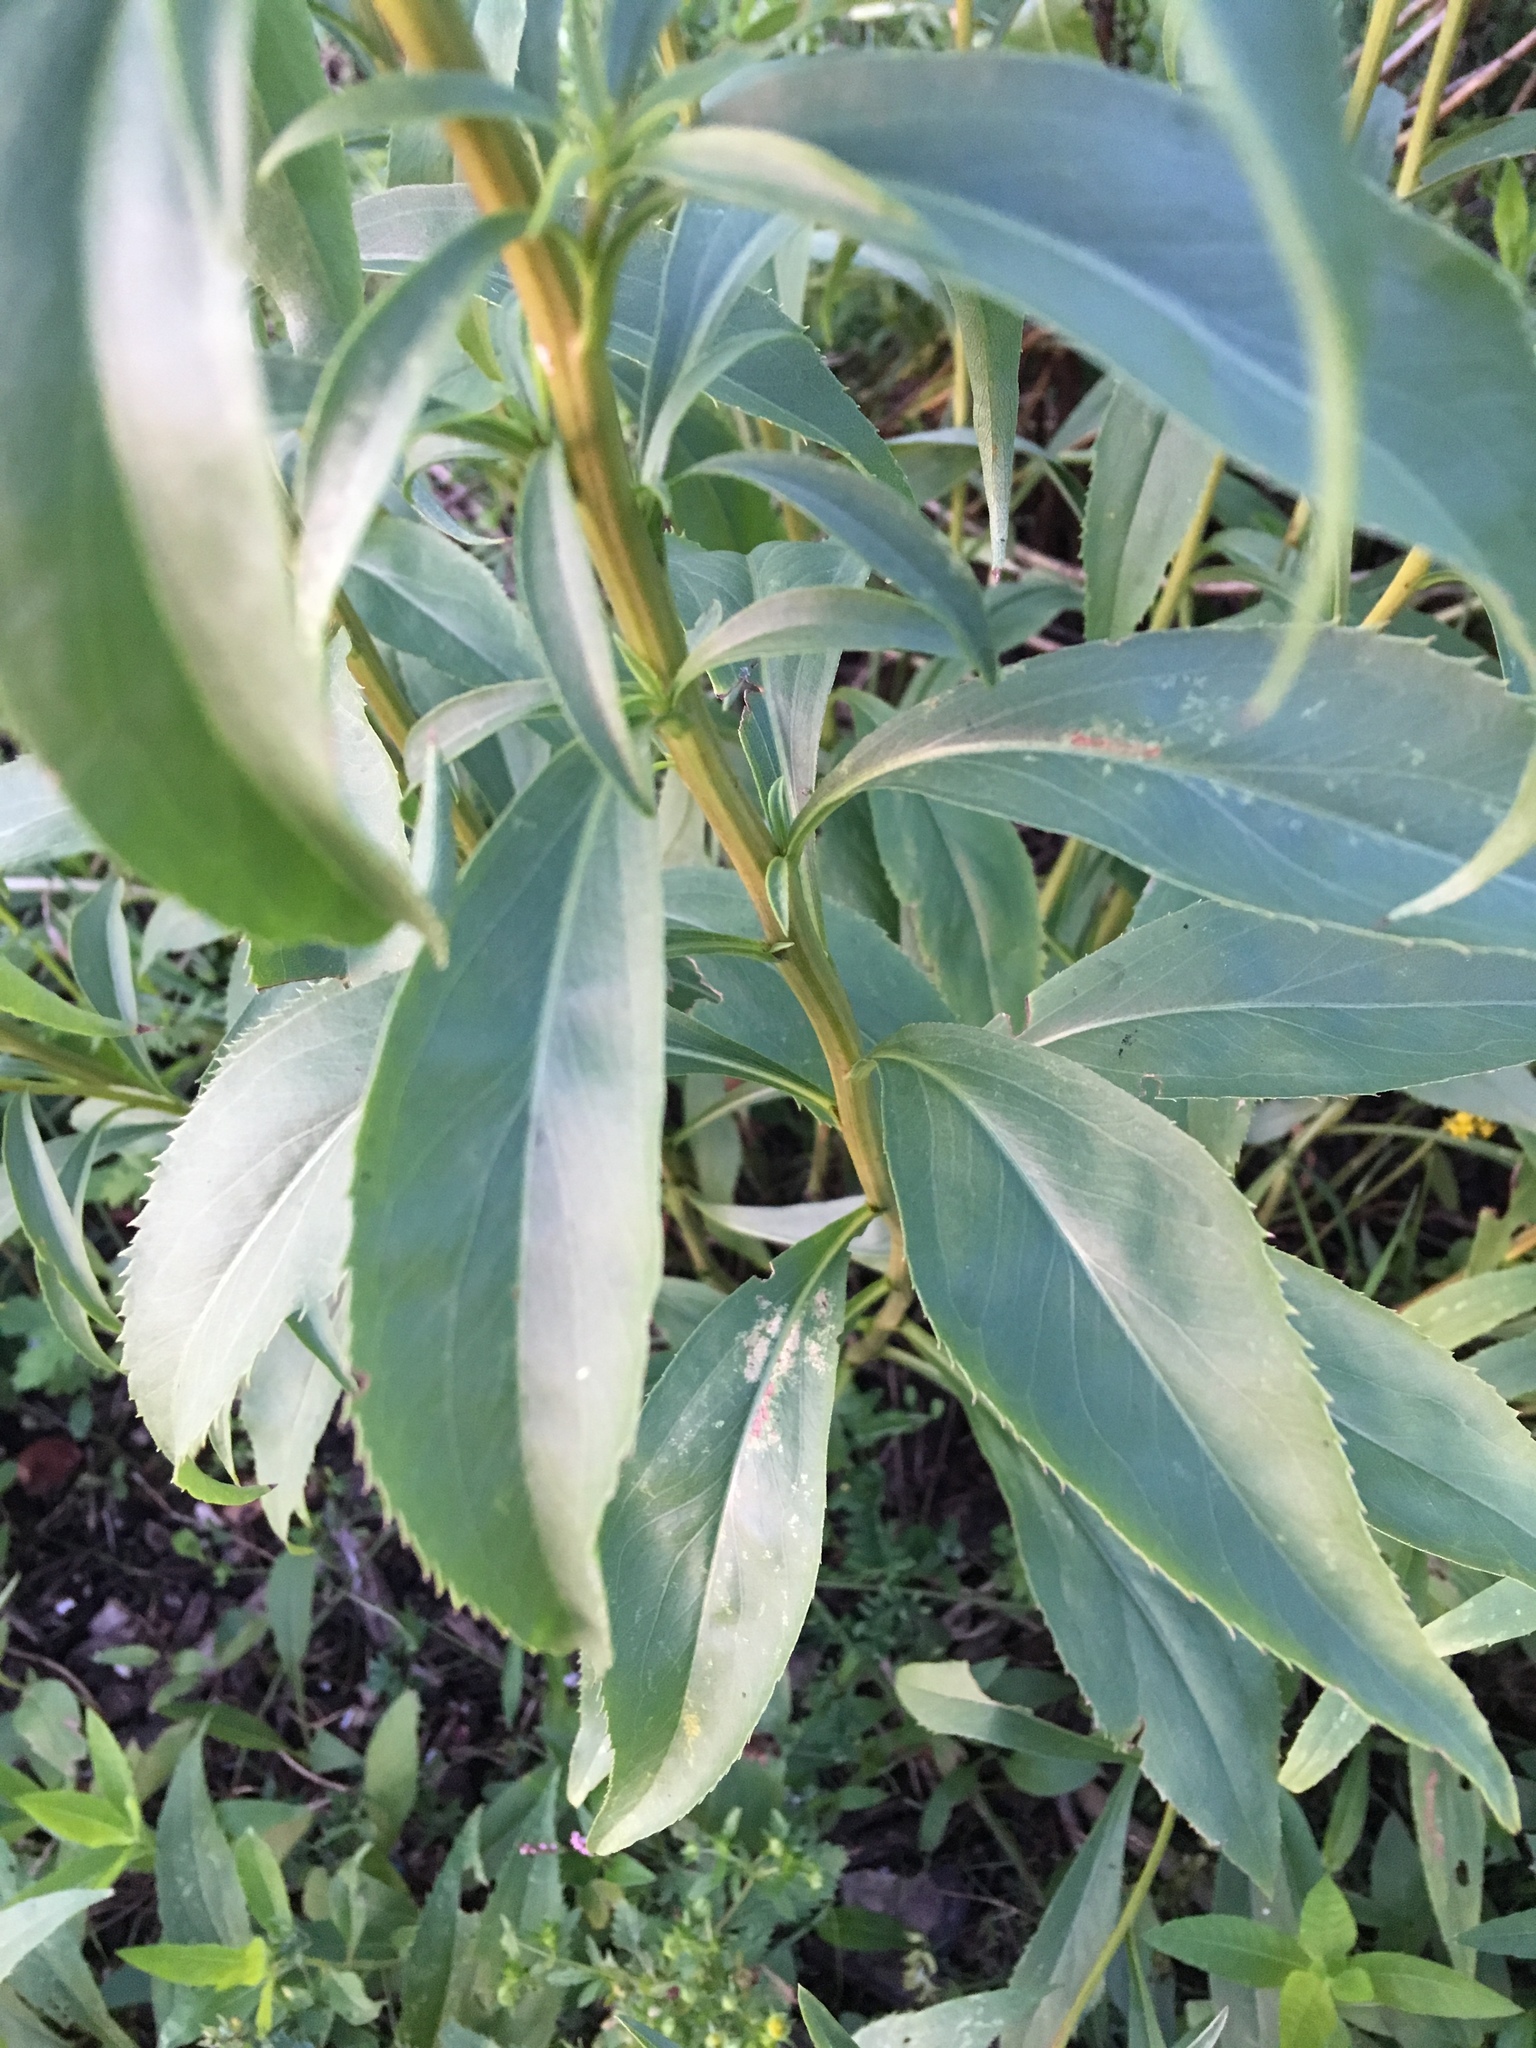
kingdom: Plantae
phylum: Tracheophyta
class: Magnoliopsida
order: Asterales
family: Asteraceae
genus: Solidago
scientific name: Solidago juncea
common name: Early goldenrod
